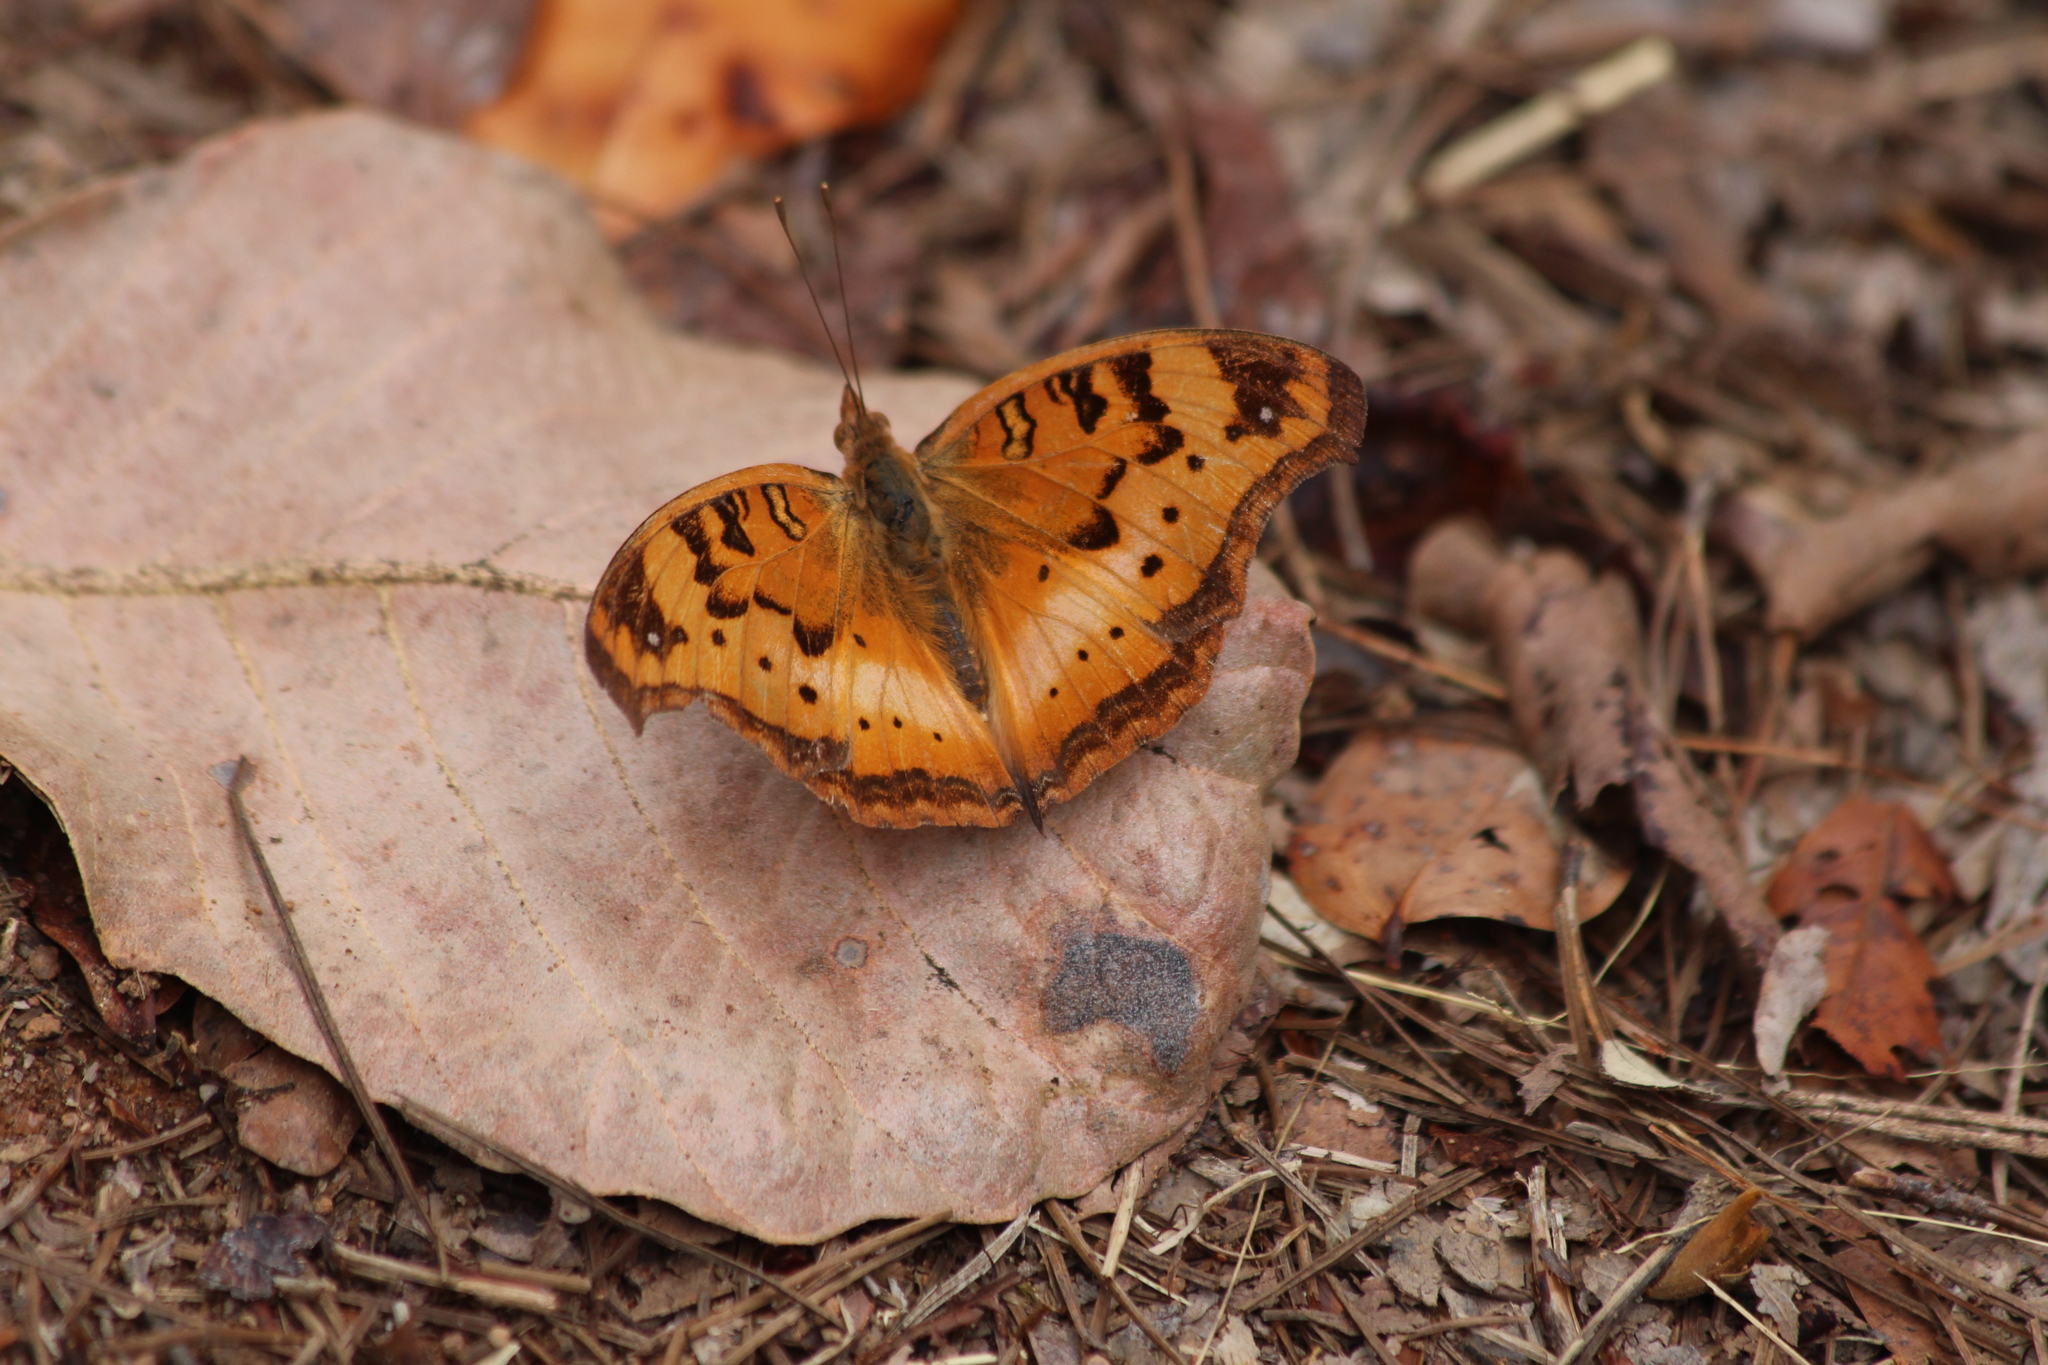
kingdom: Animalia
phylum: Arthropoda
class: Insecta
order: Lepidoptera
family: Nymphalidae
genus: Junonia
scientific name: Junonia cuama
